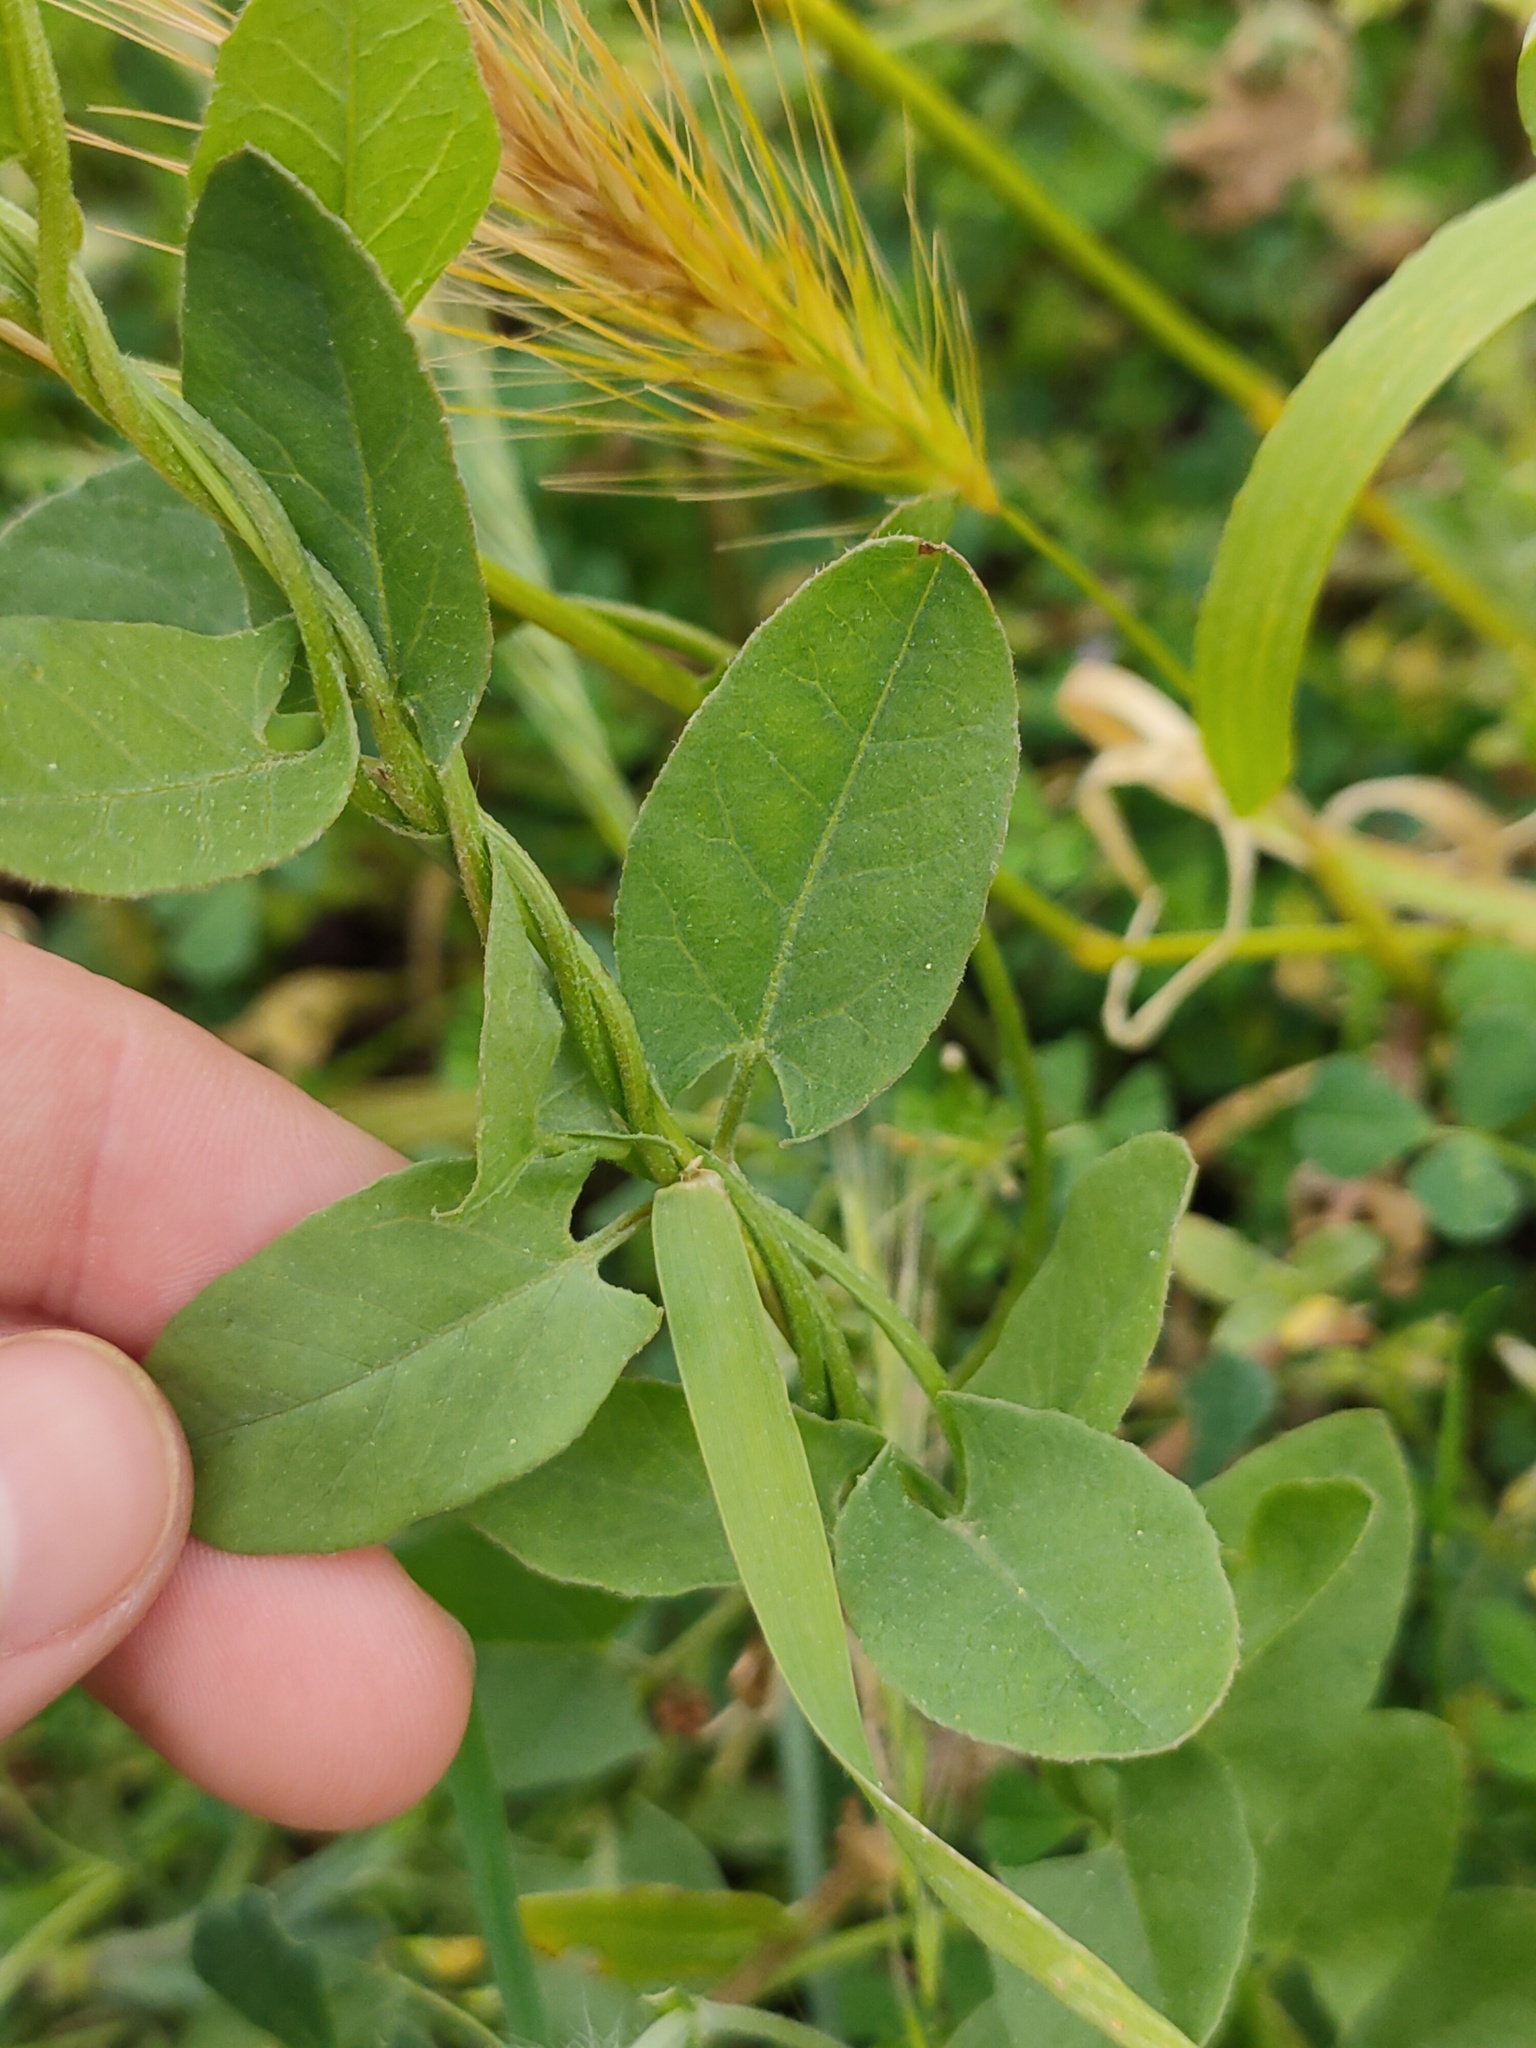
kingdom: Plantae
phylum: Tracheophyta
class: Magnoliopsida
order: Solanales
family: Convolvulaceae
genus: Convolvulus
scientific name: Convolvulus arvensis
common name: Field bindweed
